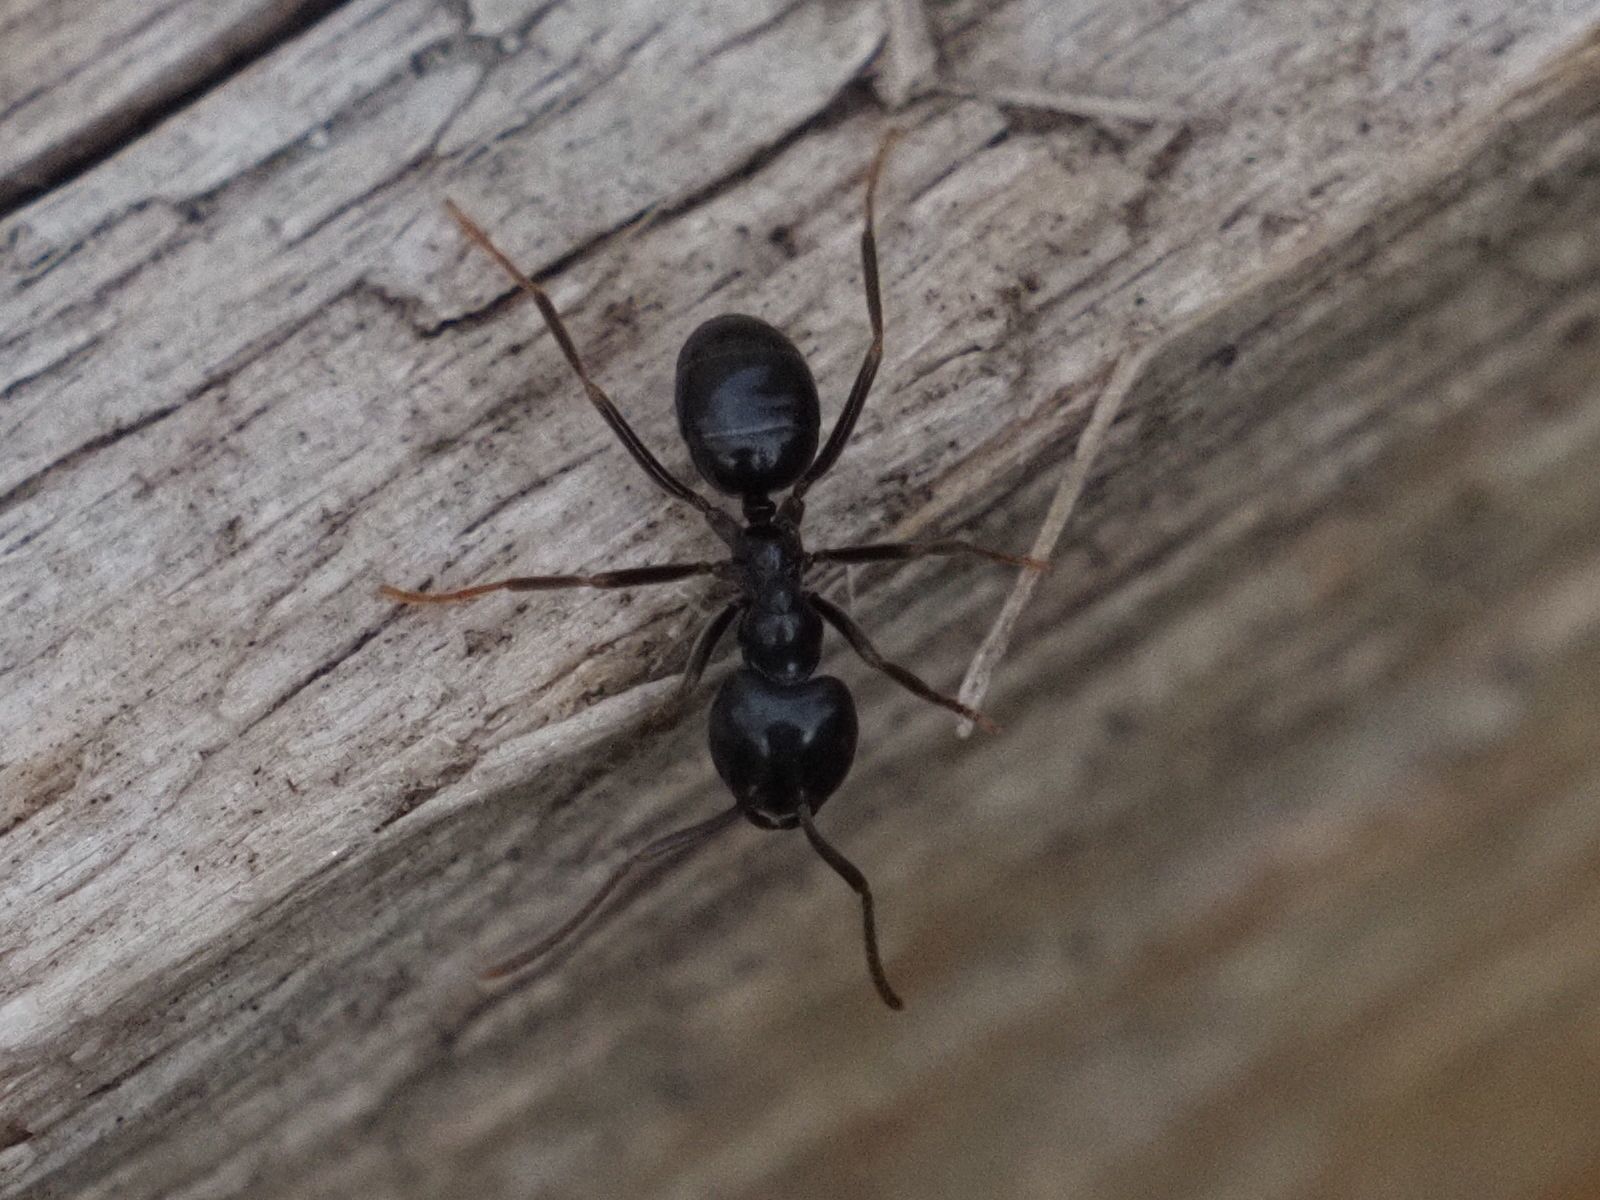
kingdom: Animalia
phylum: Arthropoda
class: Insecta
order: Hymenoptera
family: Formicidae
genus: Lasius
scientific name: Lasius fuliginosus
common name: Jet ant
